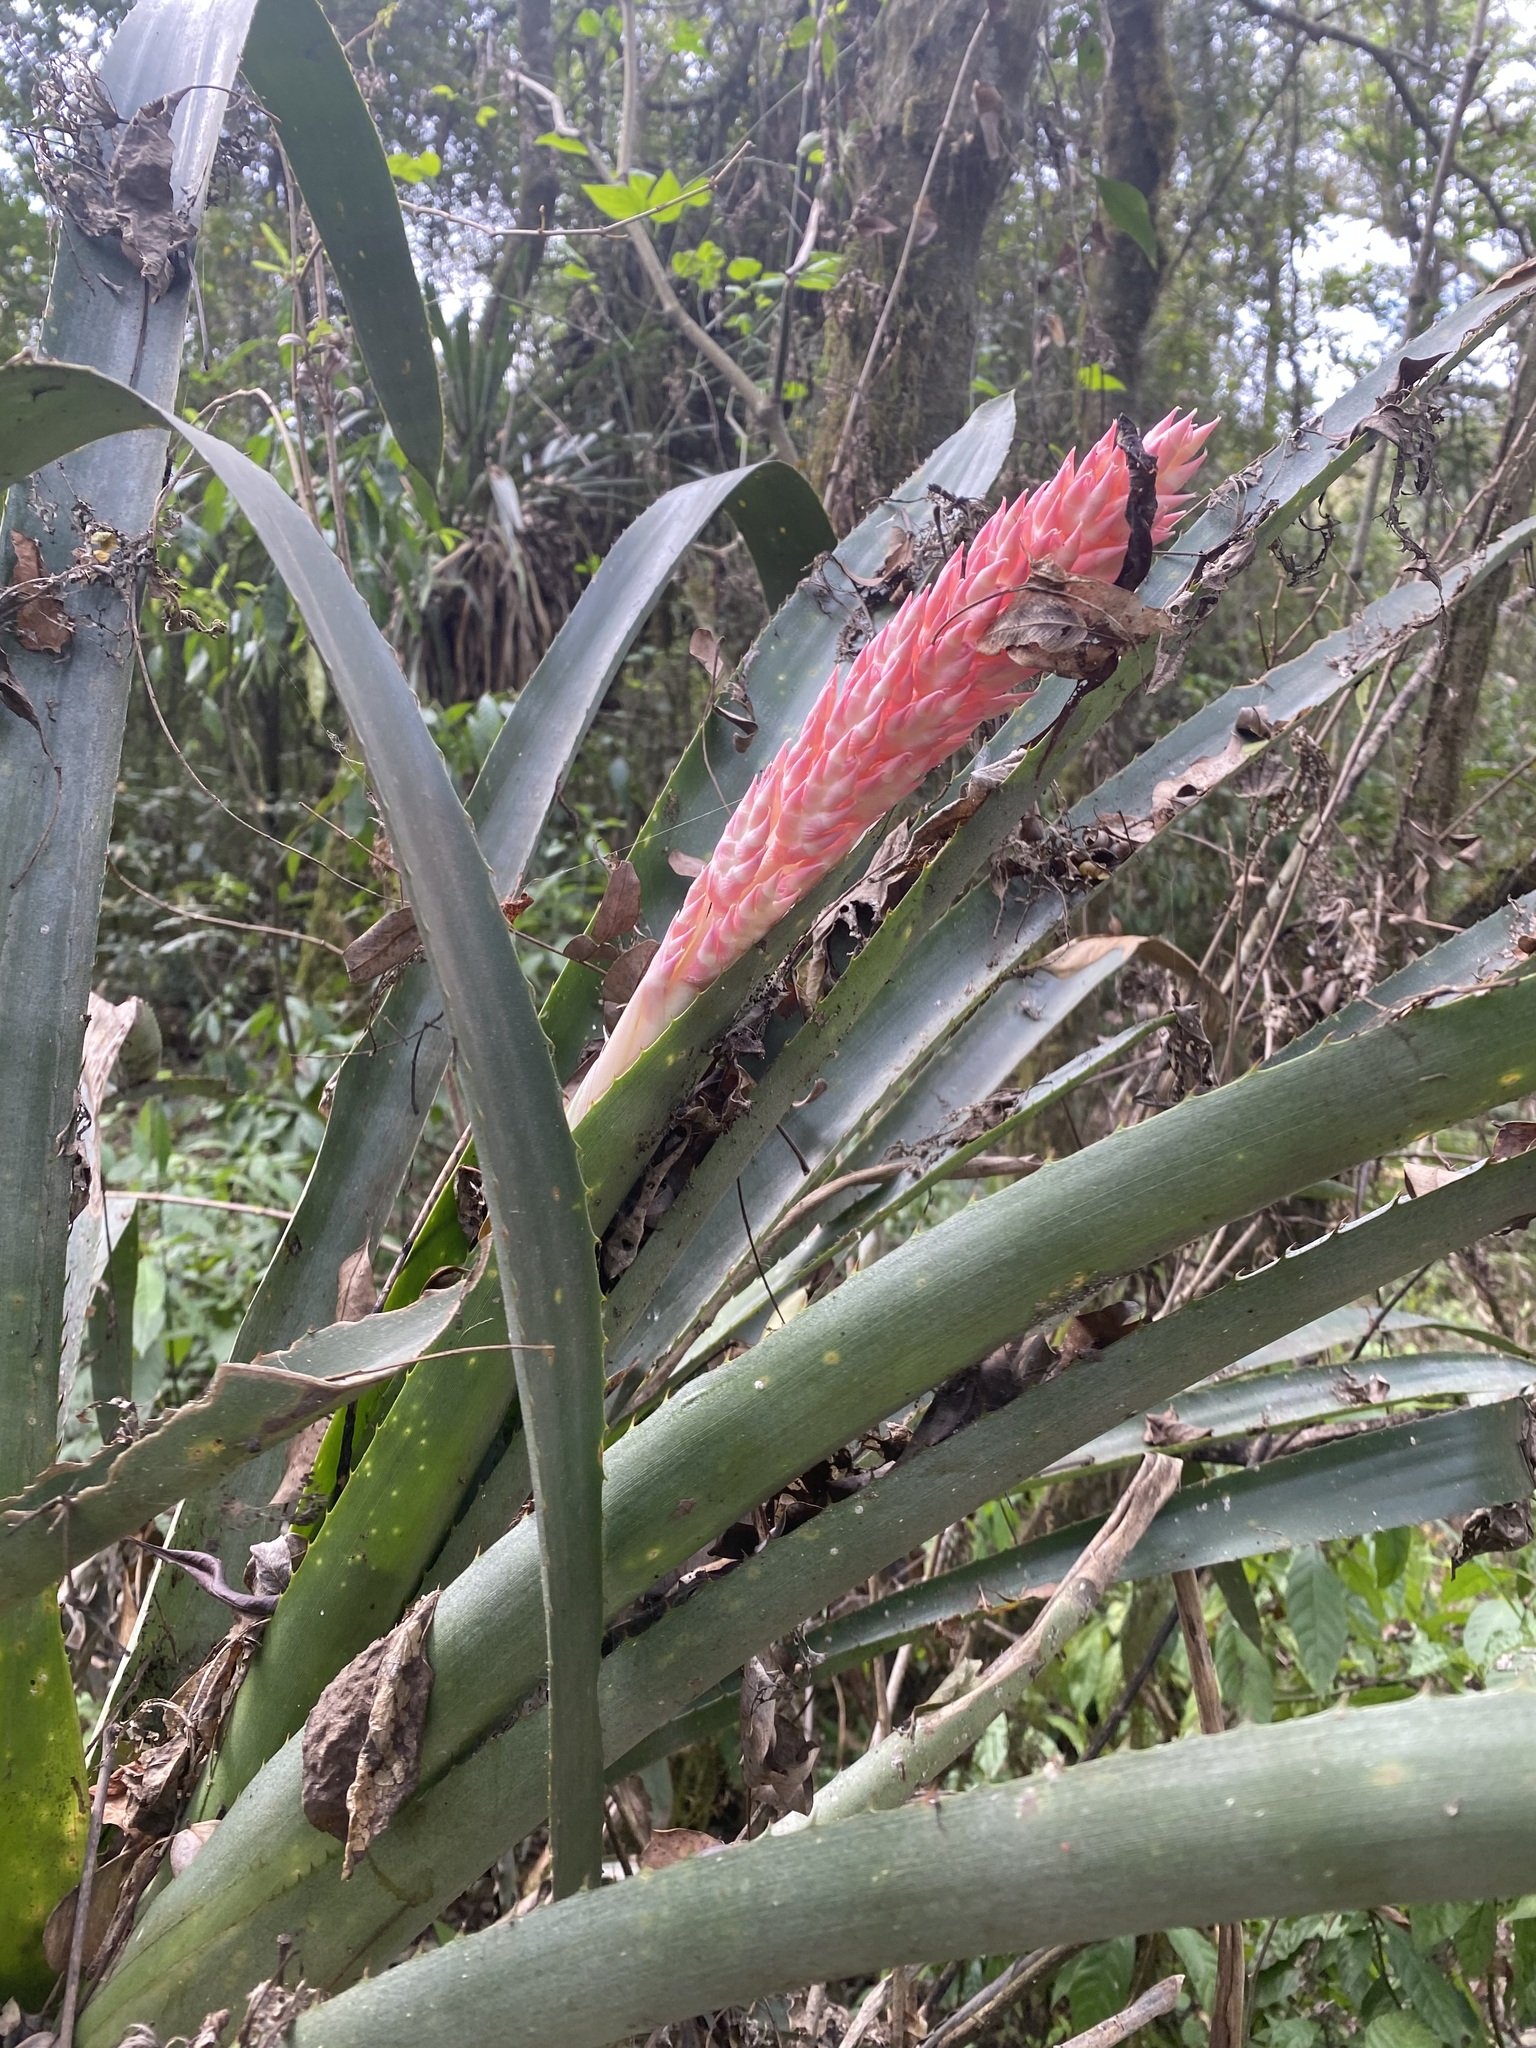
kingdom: Plantae
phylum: Tracheophyta
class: Liliopsida
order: Poales
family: Bromeliaceae
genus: Aechmea
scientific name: Aechmea distichantha
